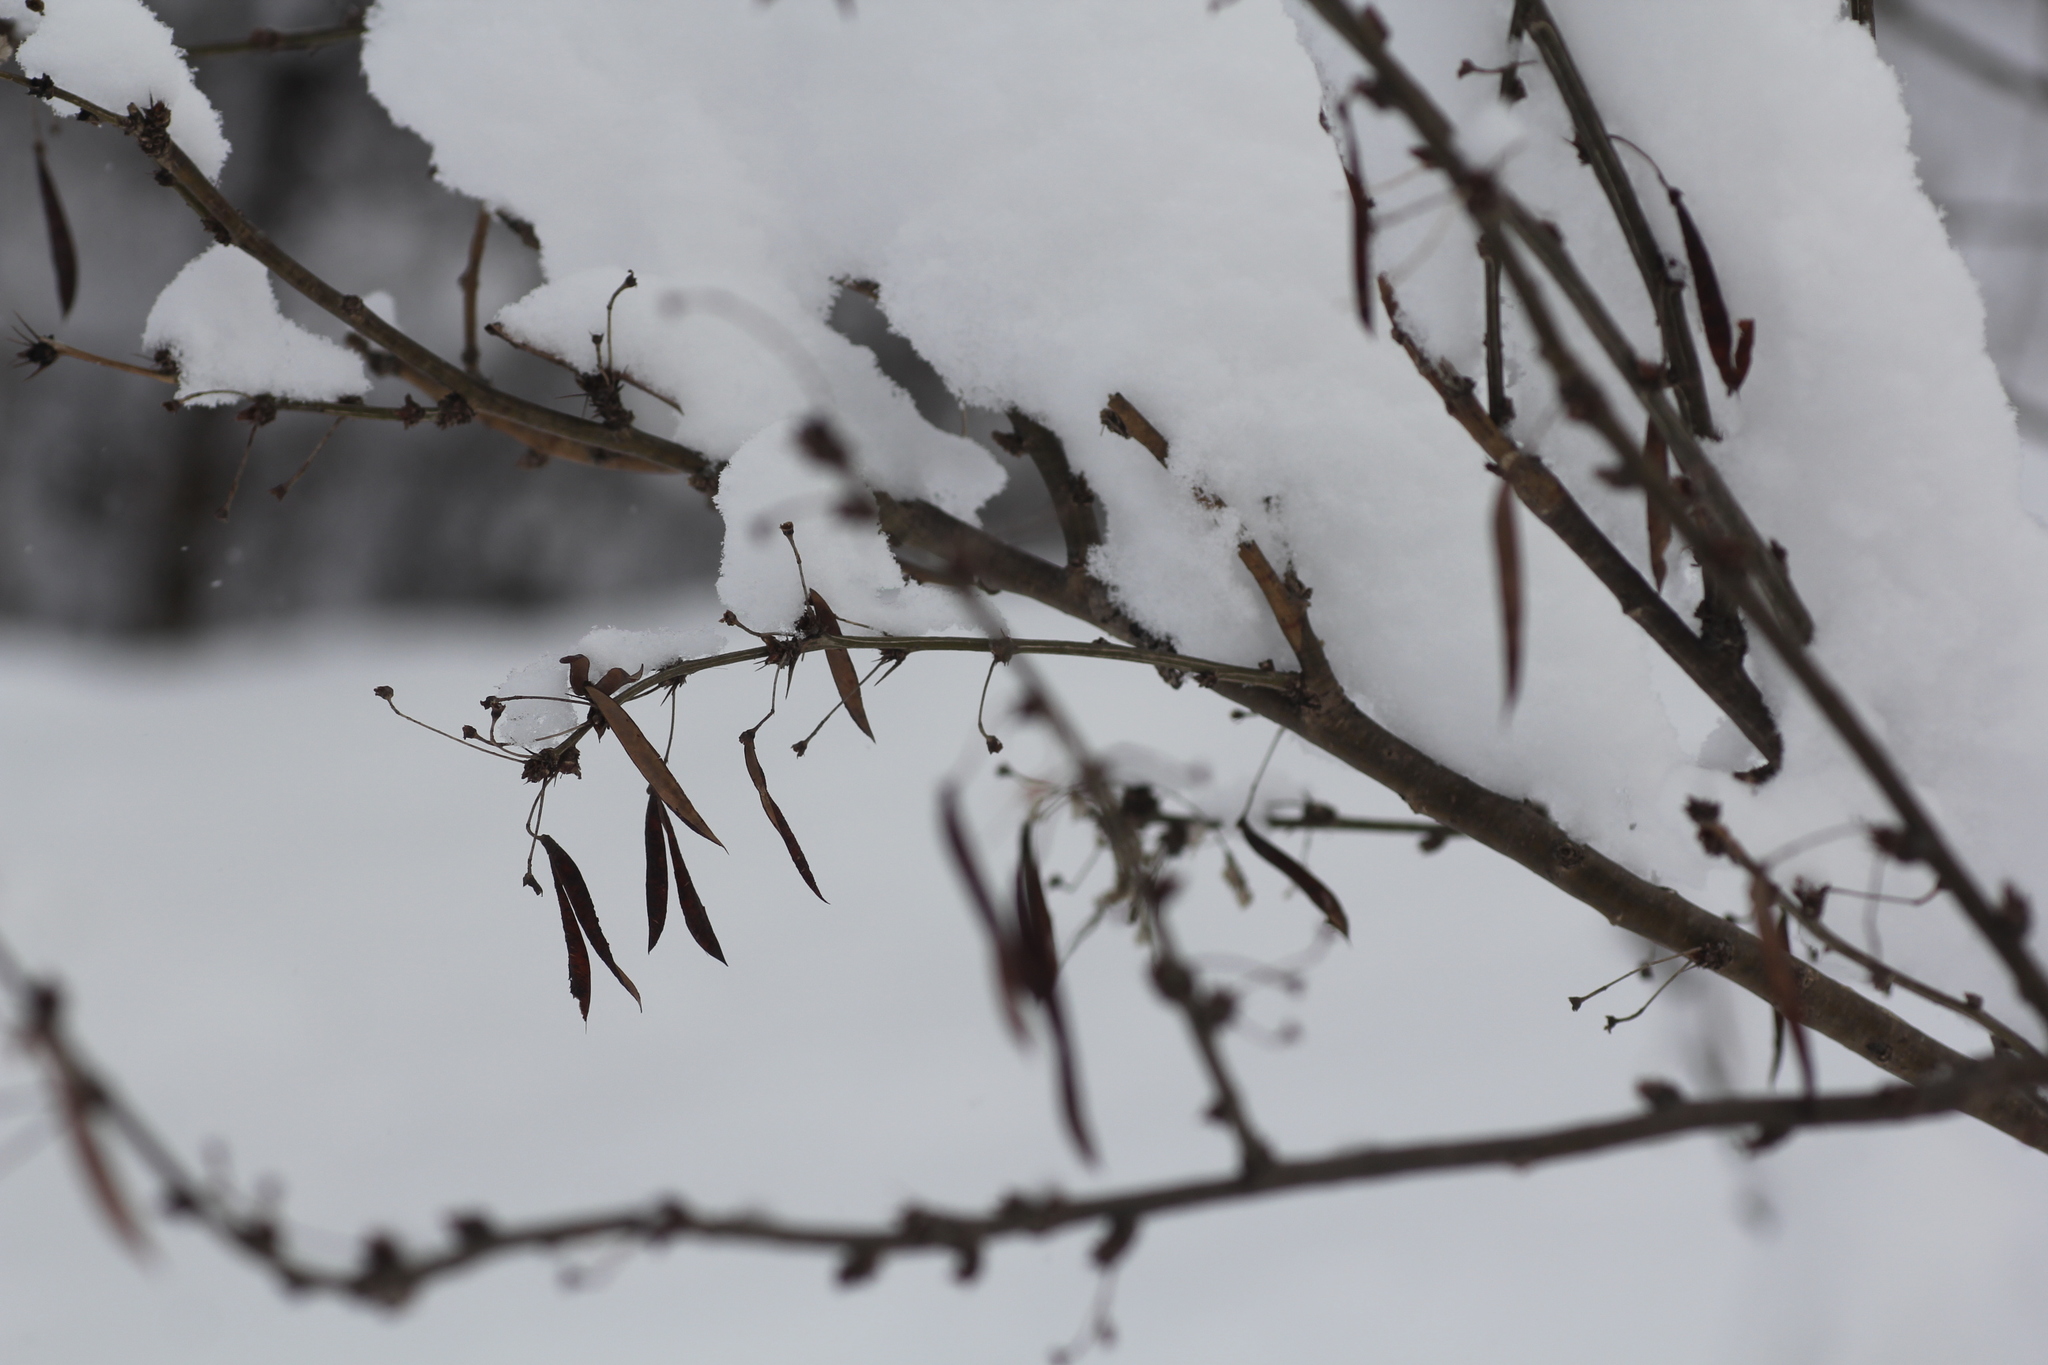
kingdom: Plantae
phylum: Tracheophyta
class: Magnoliopsida
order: Fabales
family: Fabaceae
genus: Caragana
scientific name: Caragana arborescens
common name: Siberian peashrub
